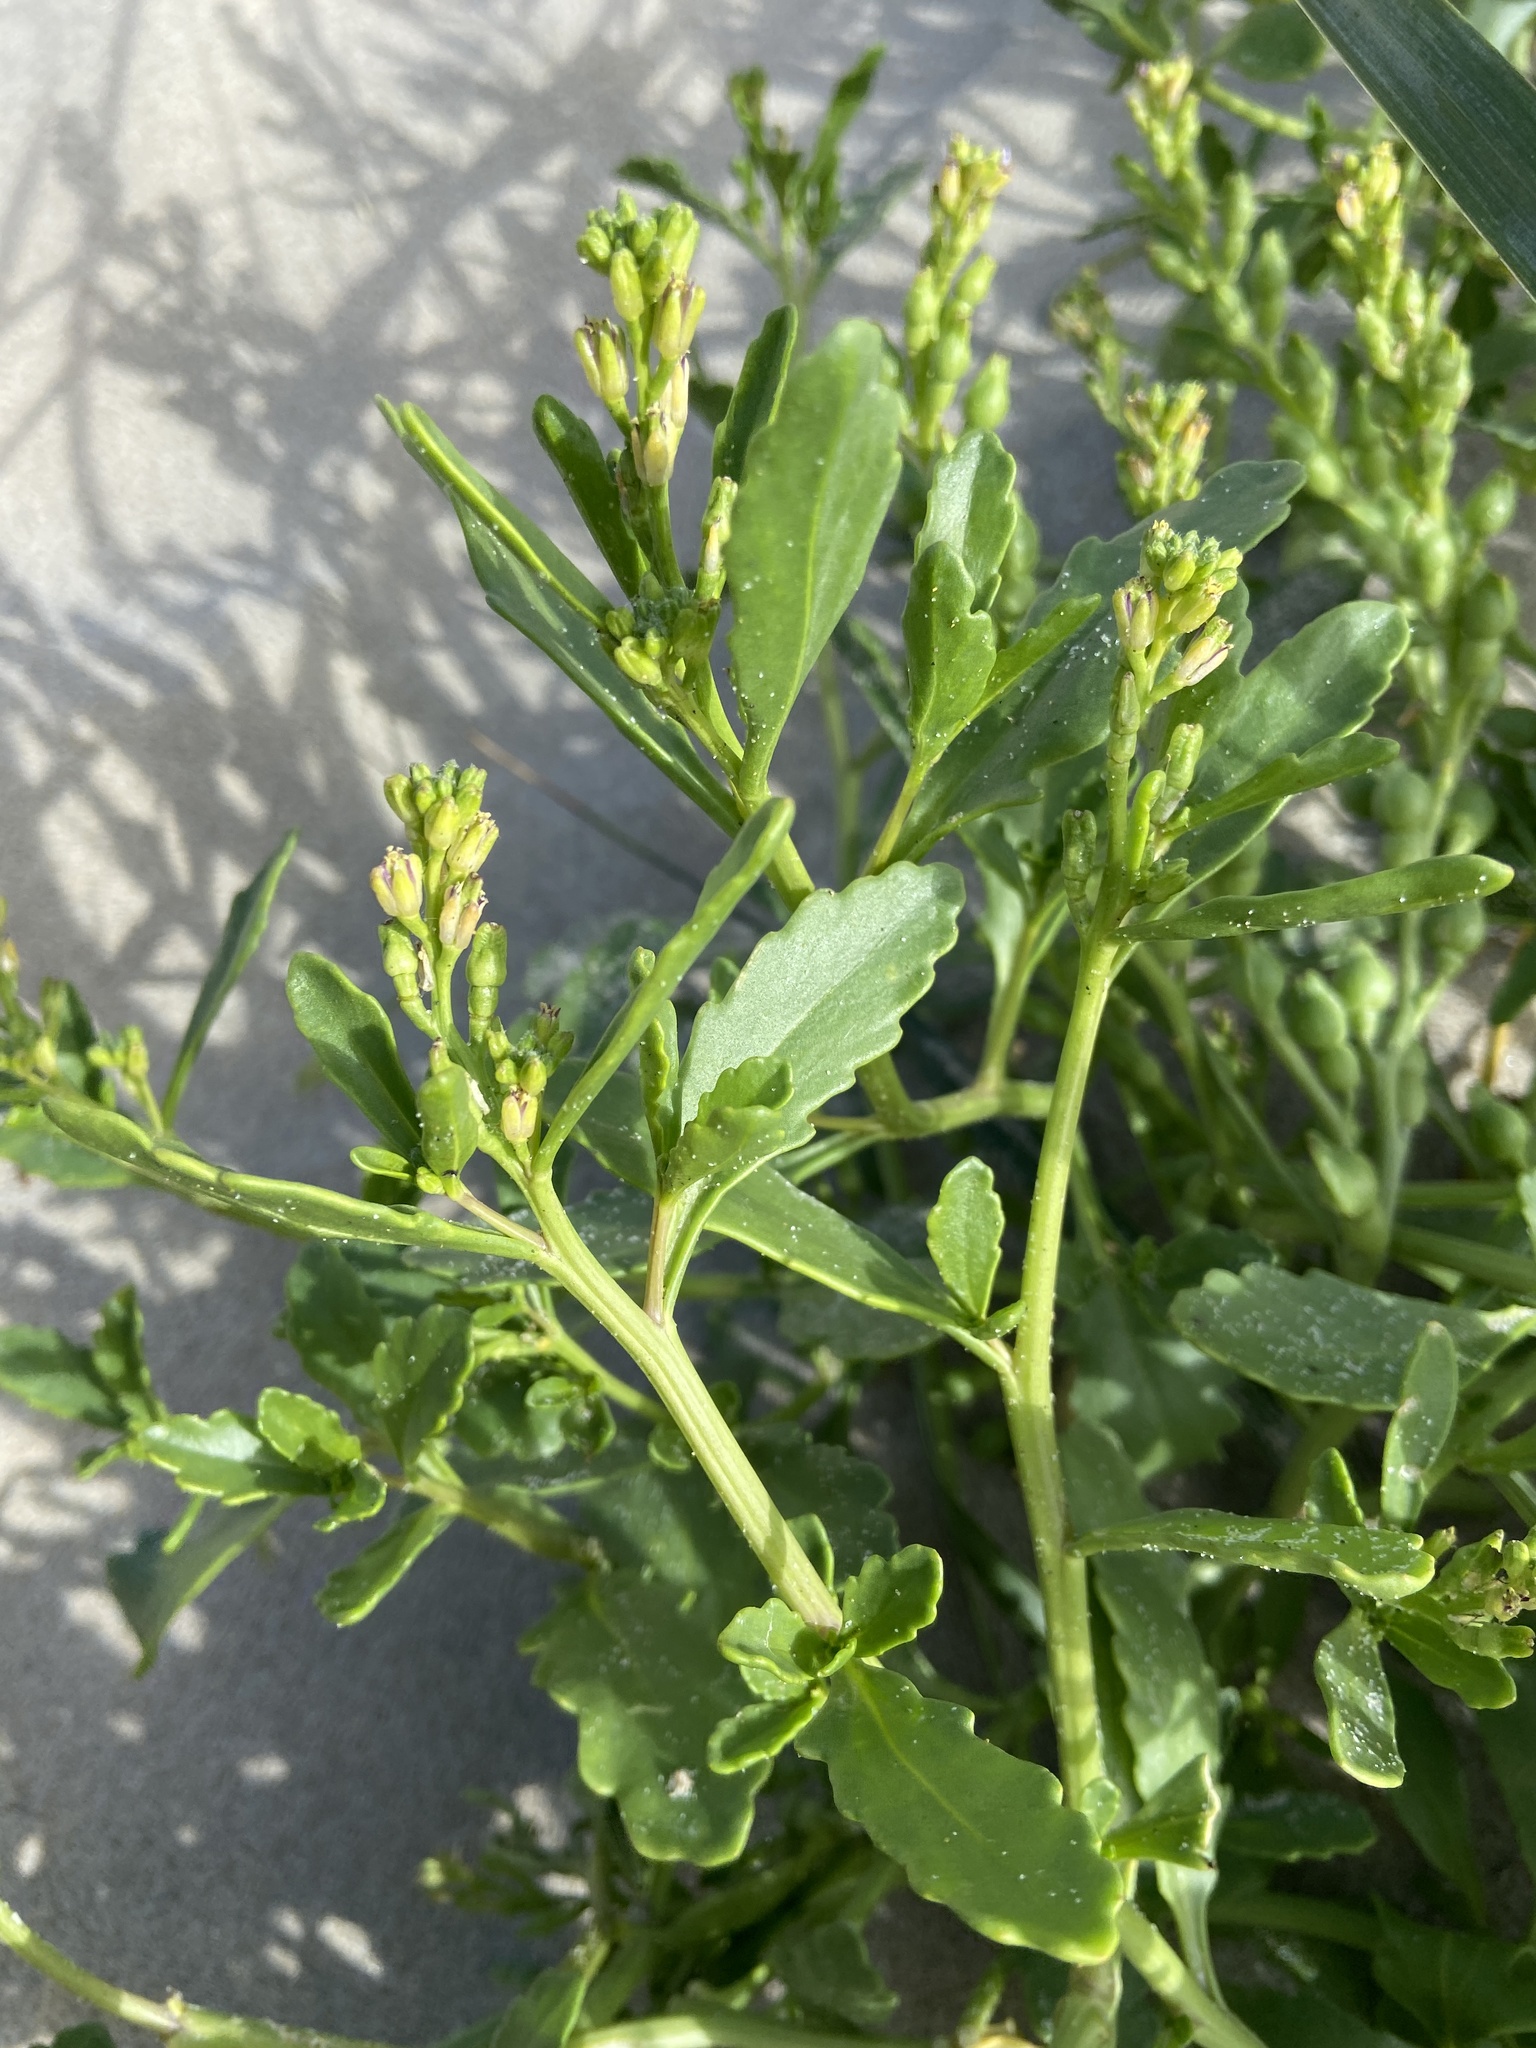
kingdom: Plantae
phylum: Tracheophyta
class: Magnoliopsida
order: Brassicales
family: Brassicaceae
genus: Cakile
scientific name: Cakile edentula
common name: American sea rocket
